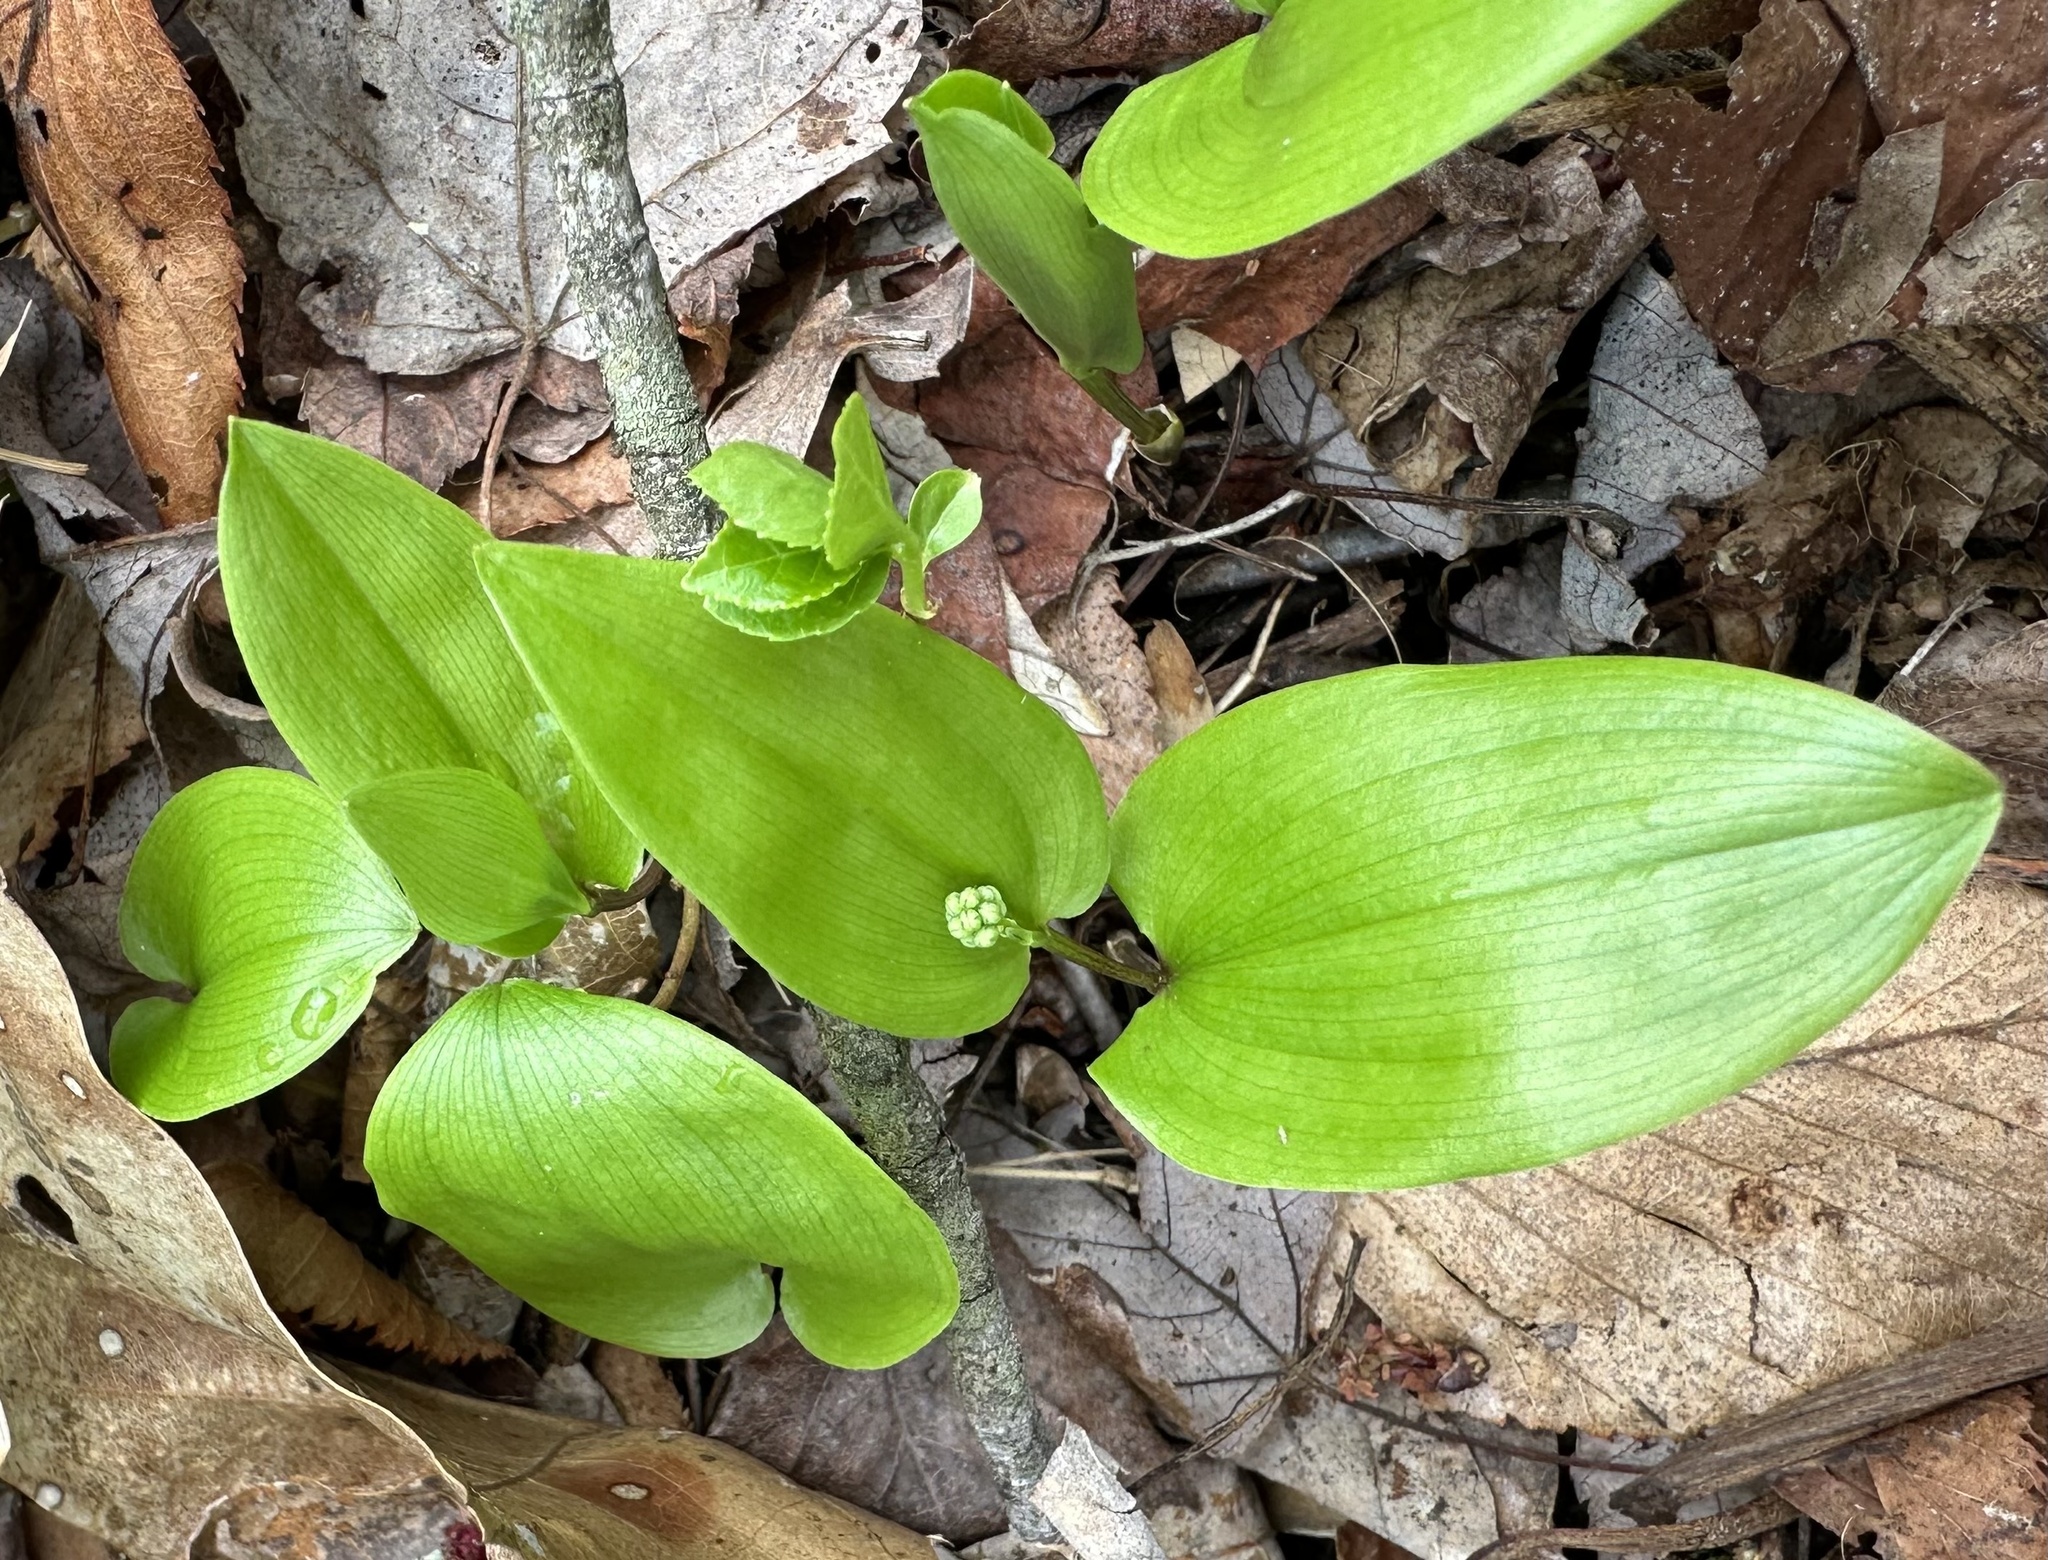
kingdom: Plantae
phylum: Tracheophyta
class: Liliopsida
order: Asparagales
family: Asparagaceae
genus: Maianthemum
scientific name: Maianthemum canadense
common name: False lily-of-the-valley
